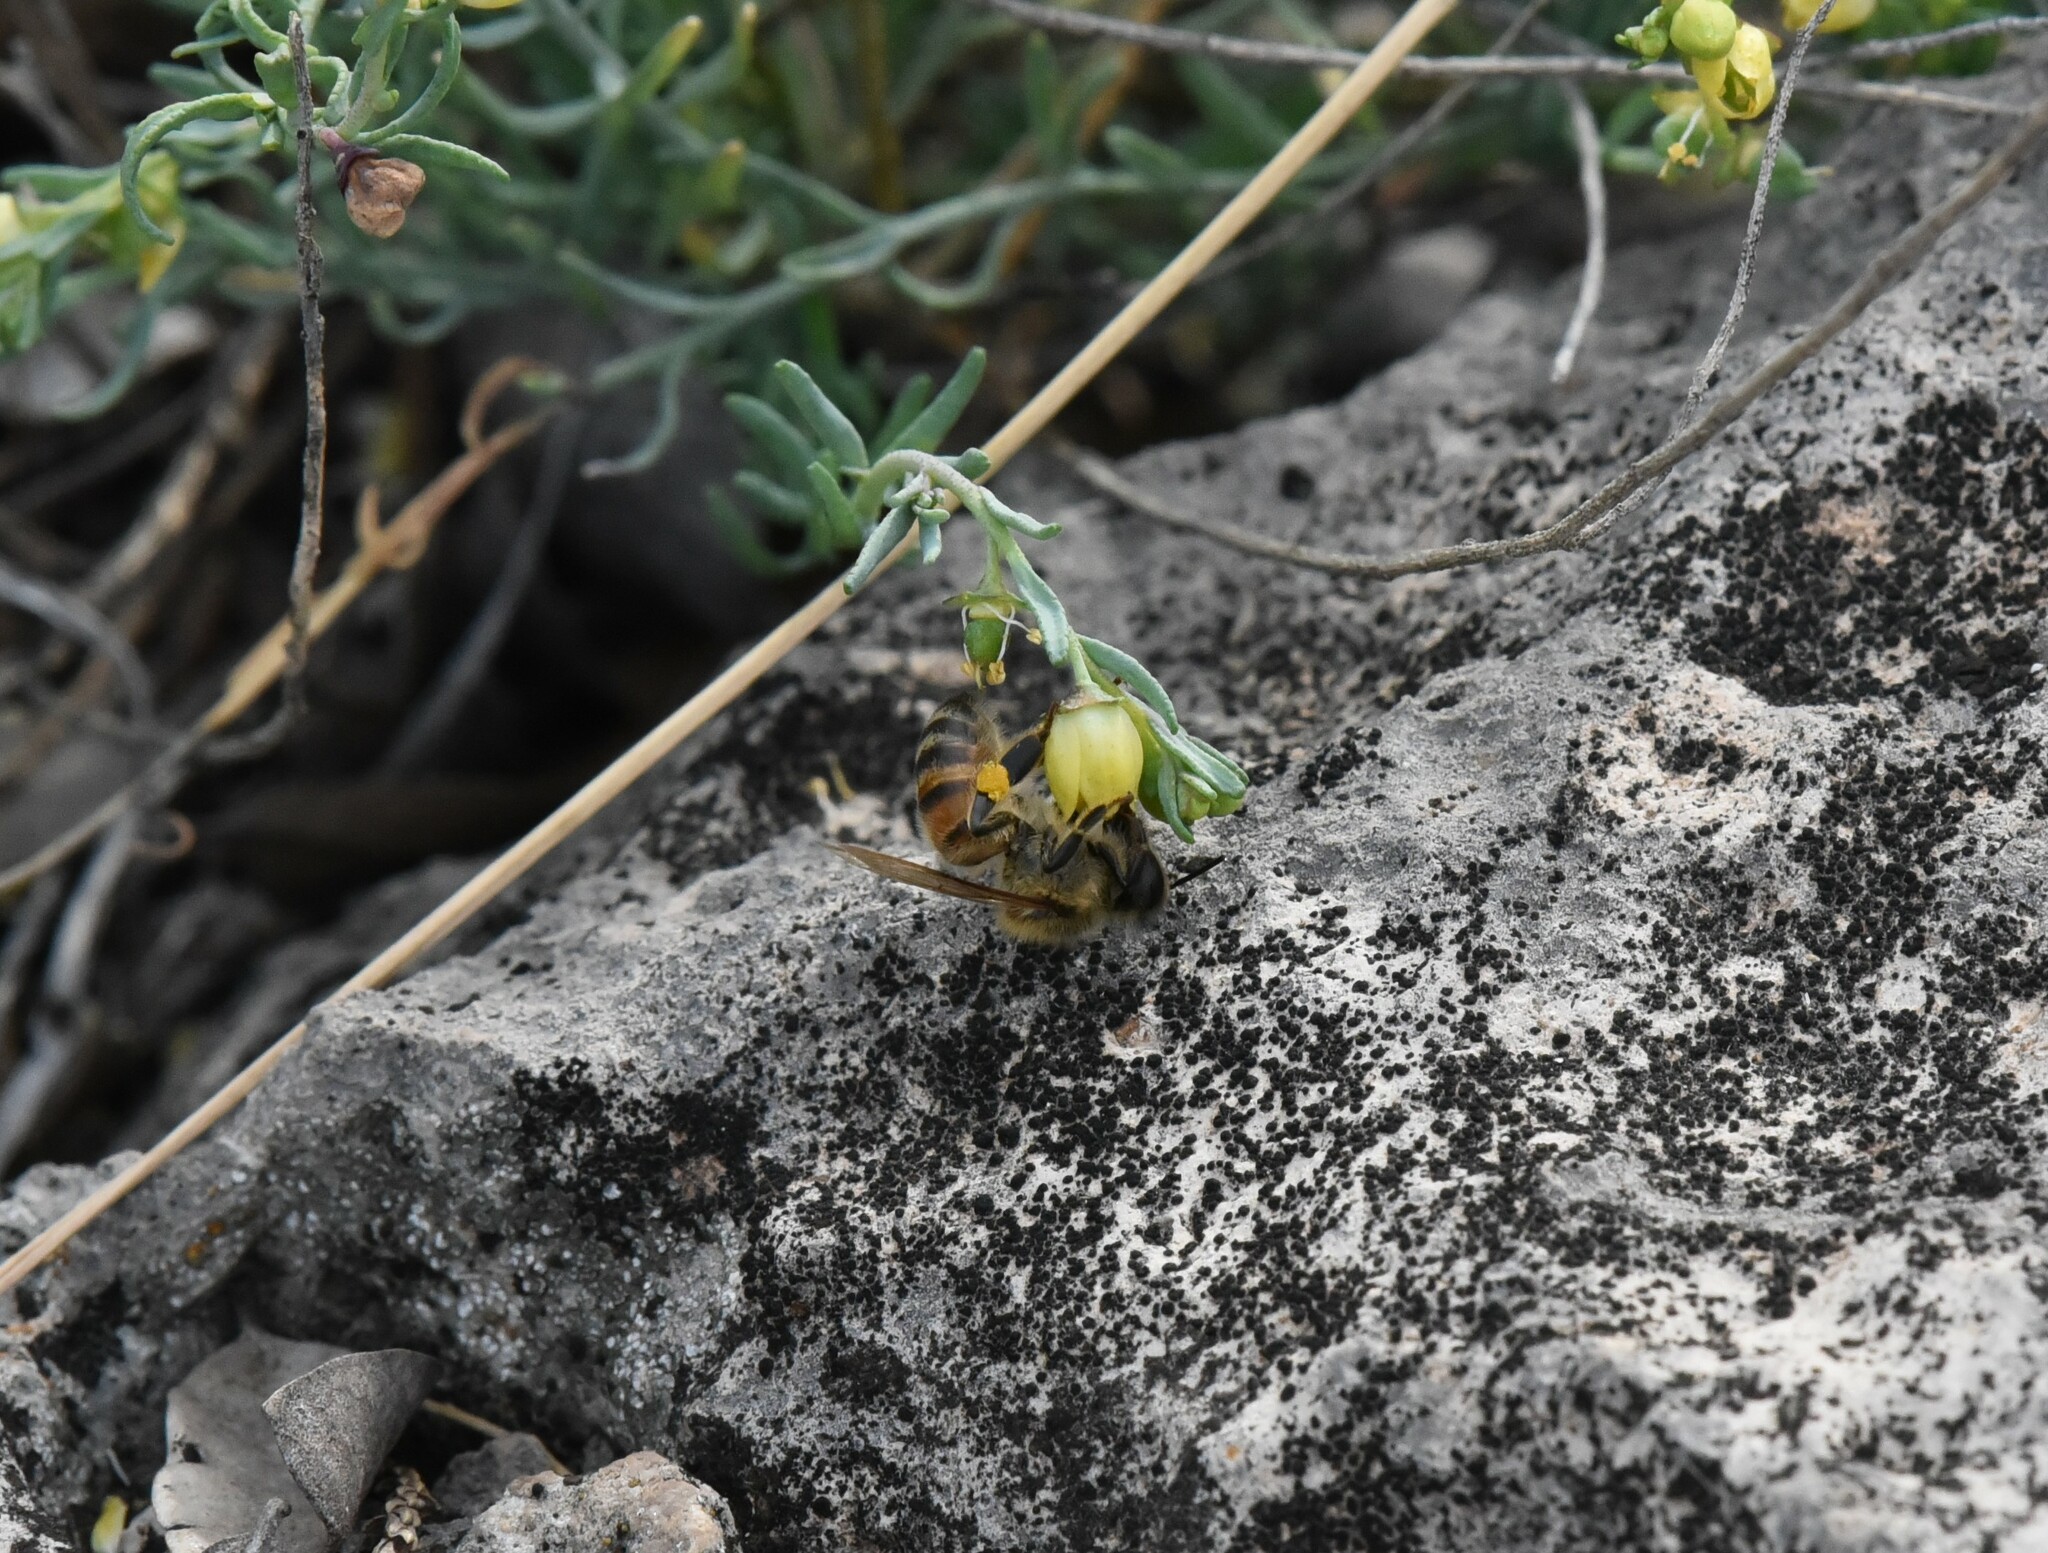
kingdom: Animalia
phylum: Arthropoda
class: Insecta
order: Hymenoptera
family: Apidae
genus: Apis
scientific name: Apis mellifera
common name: Honey bee
